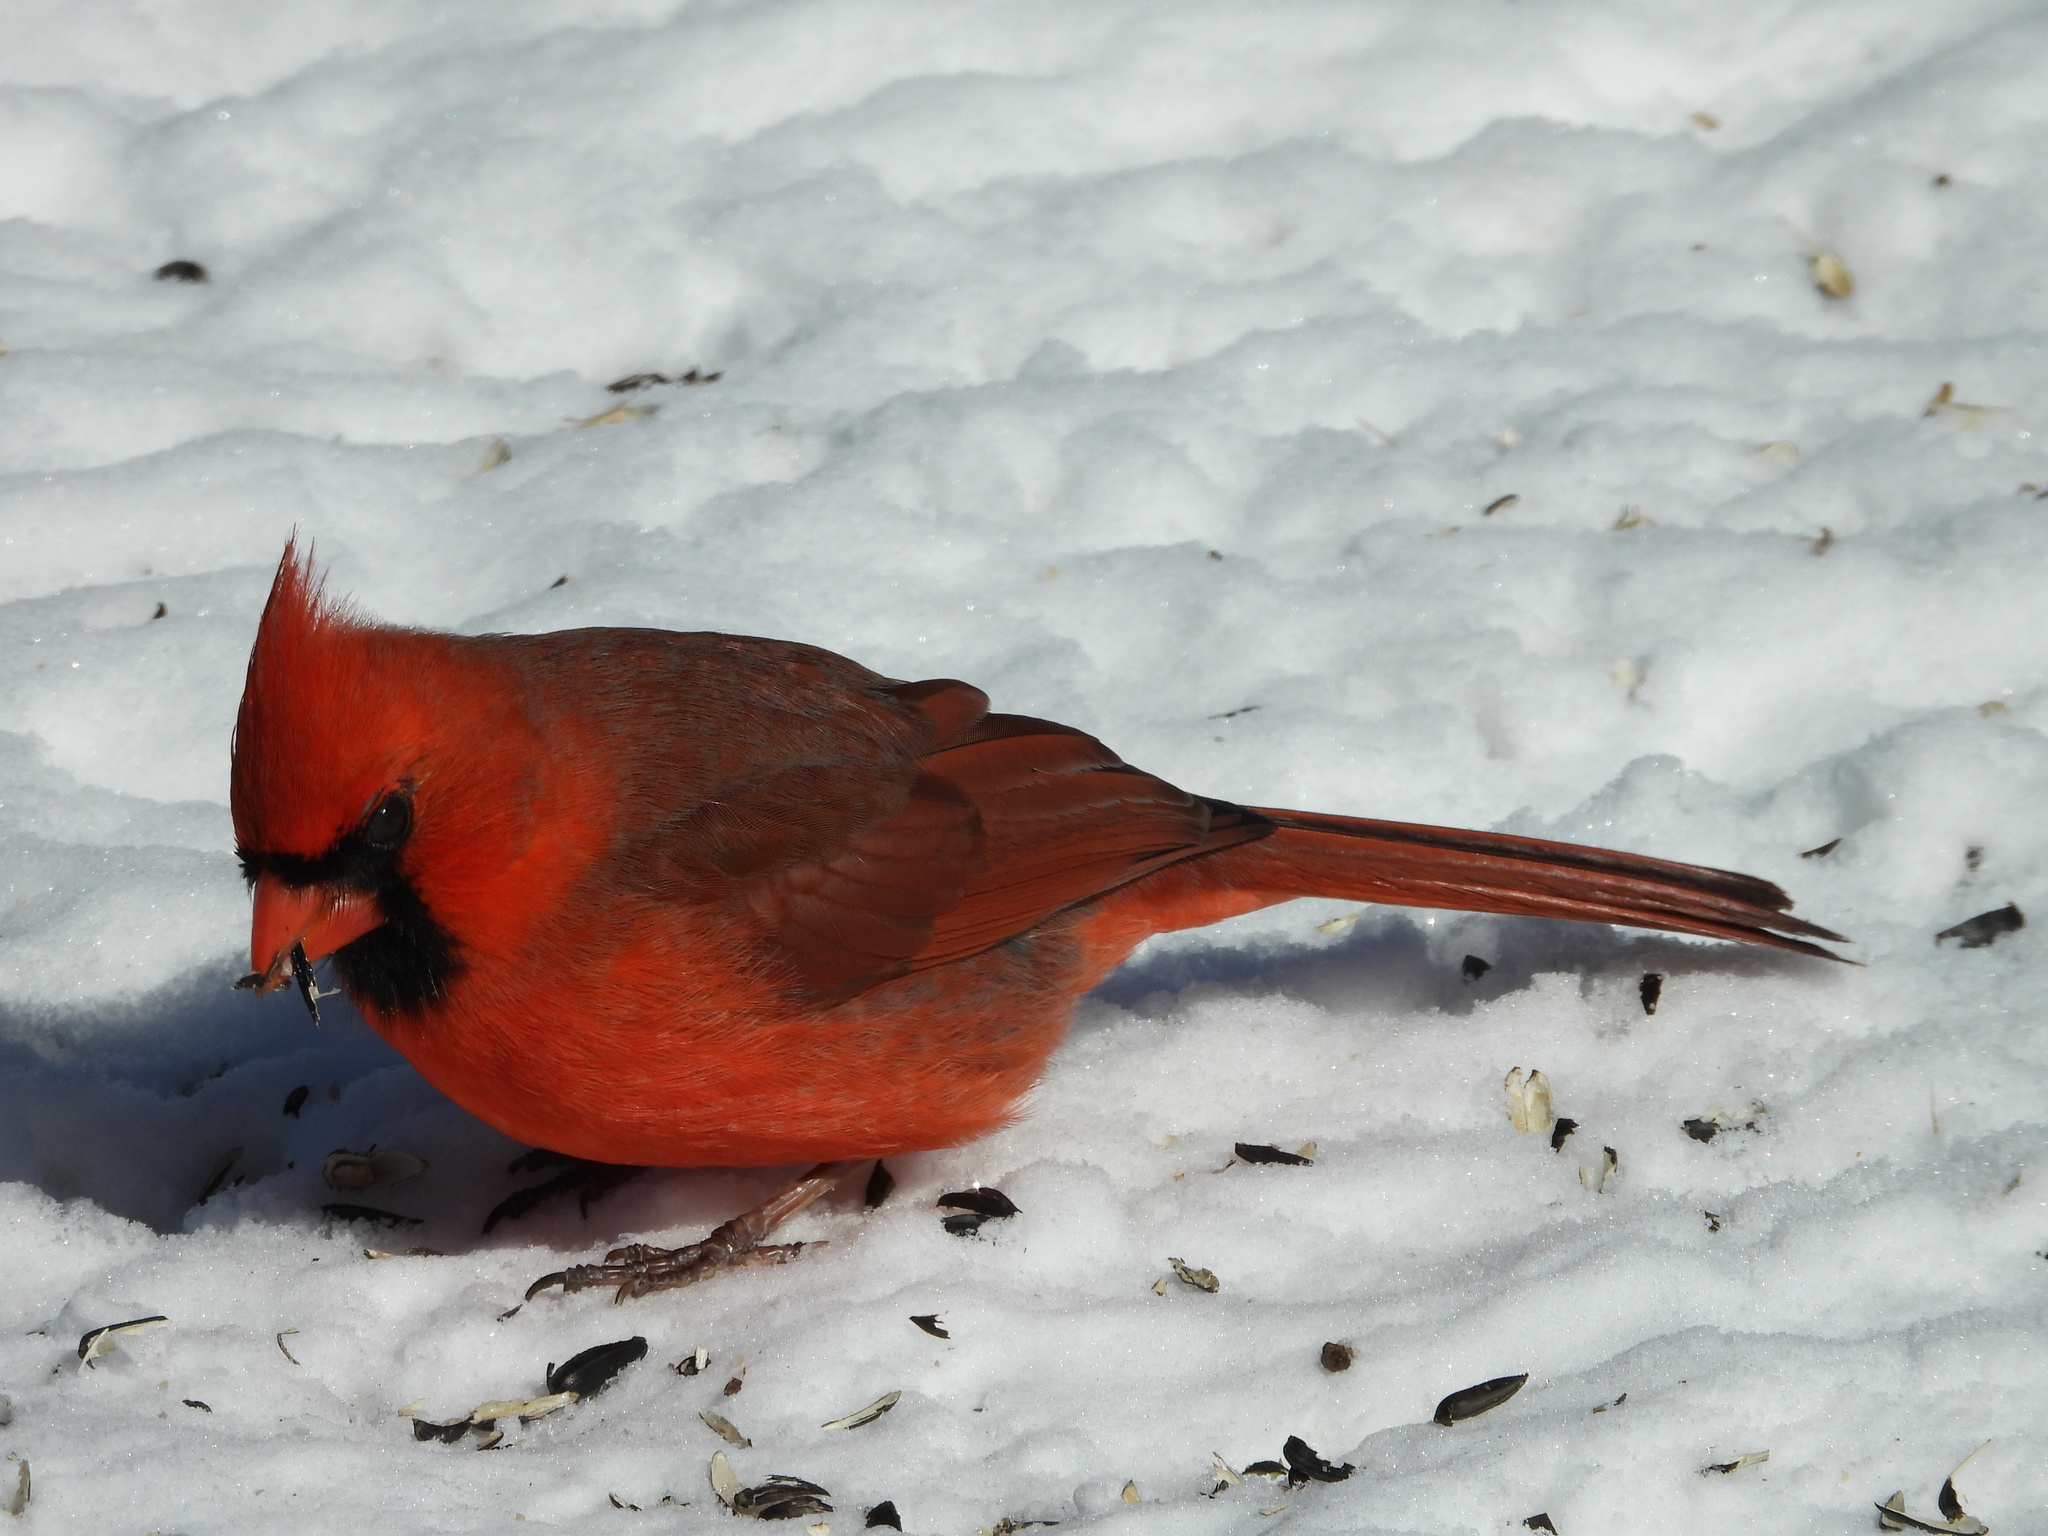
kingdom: Animalia
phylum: Chordata
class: Aves
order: Passeriformes
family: Cardinalidae
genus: Cardinalis
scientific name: Cardinalis cardinalis
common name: Northern cardinal
